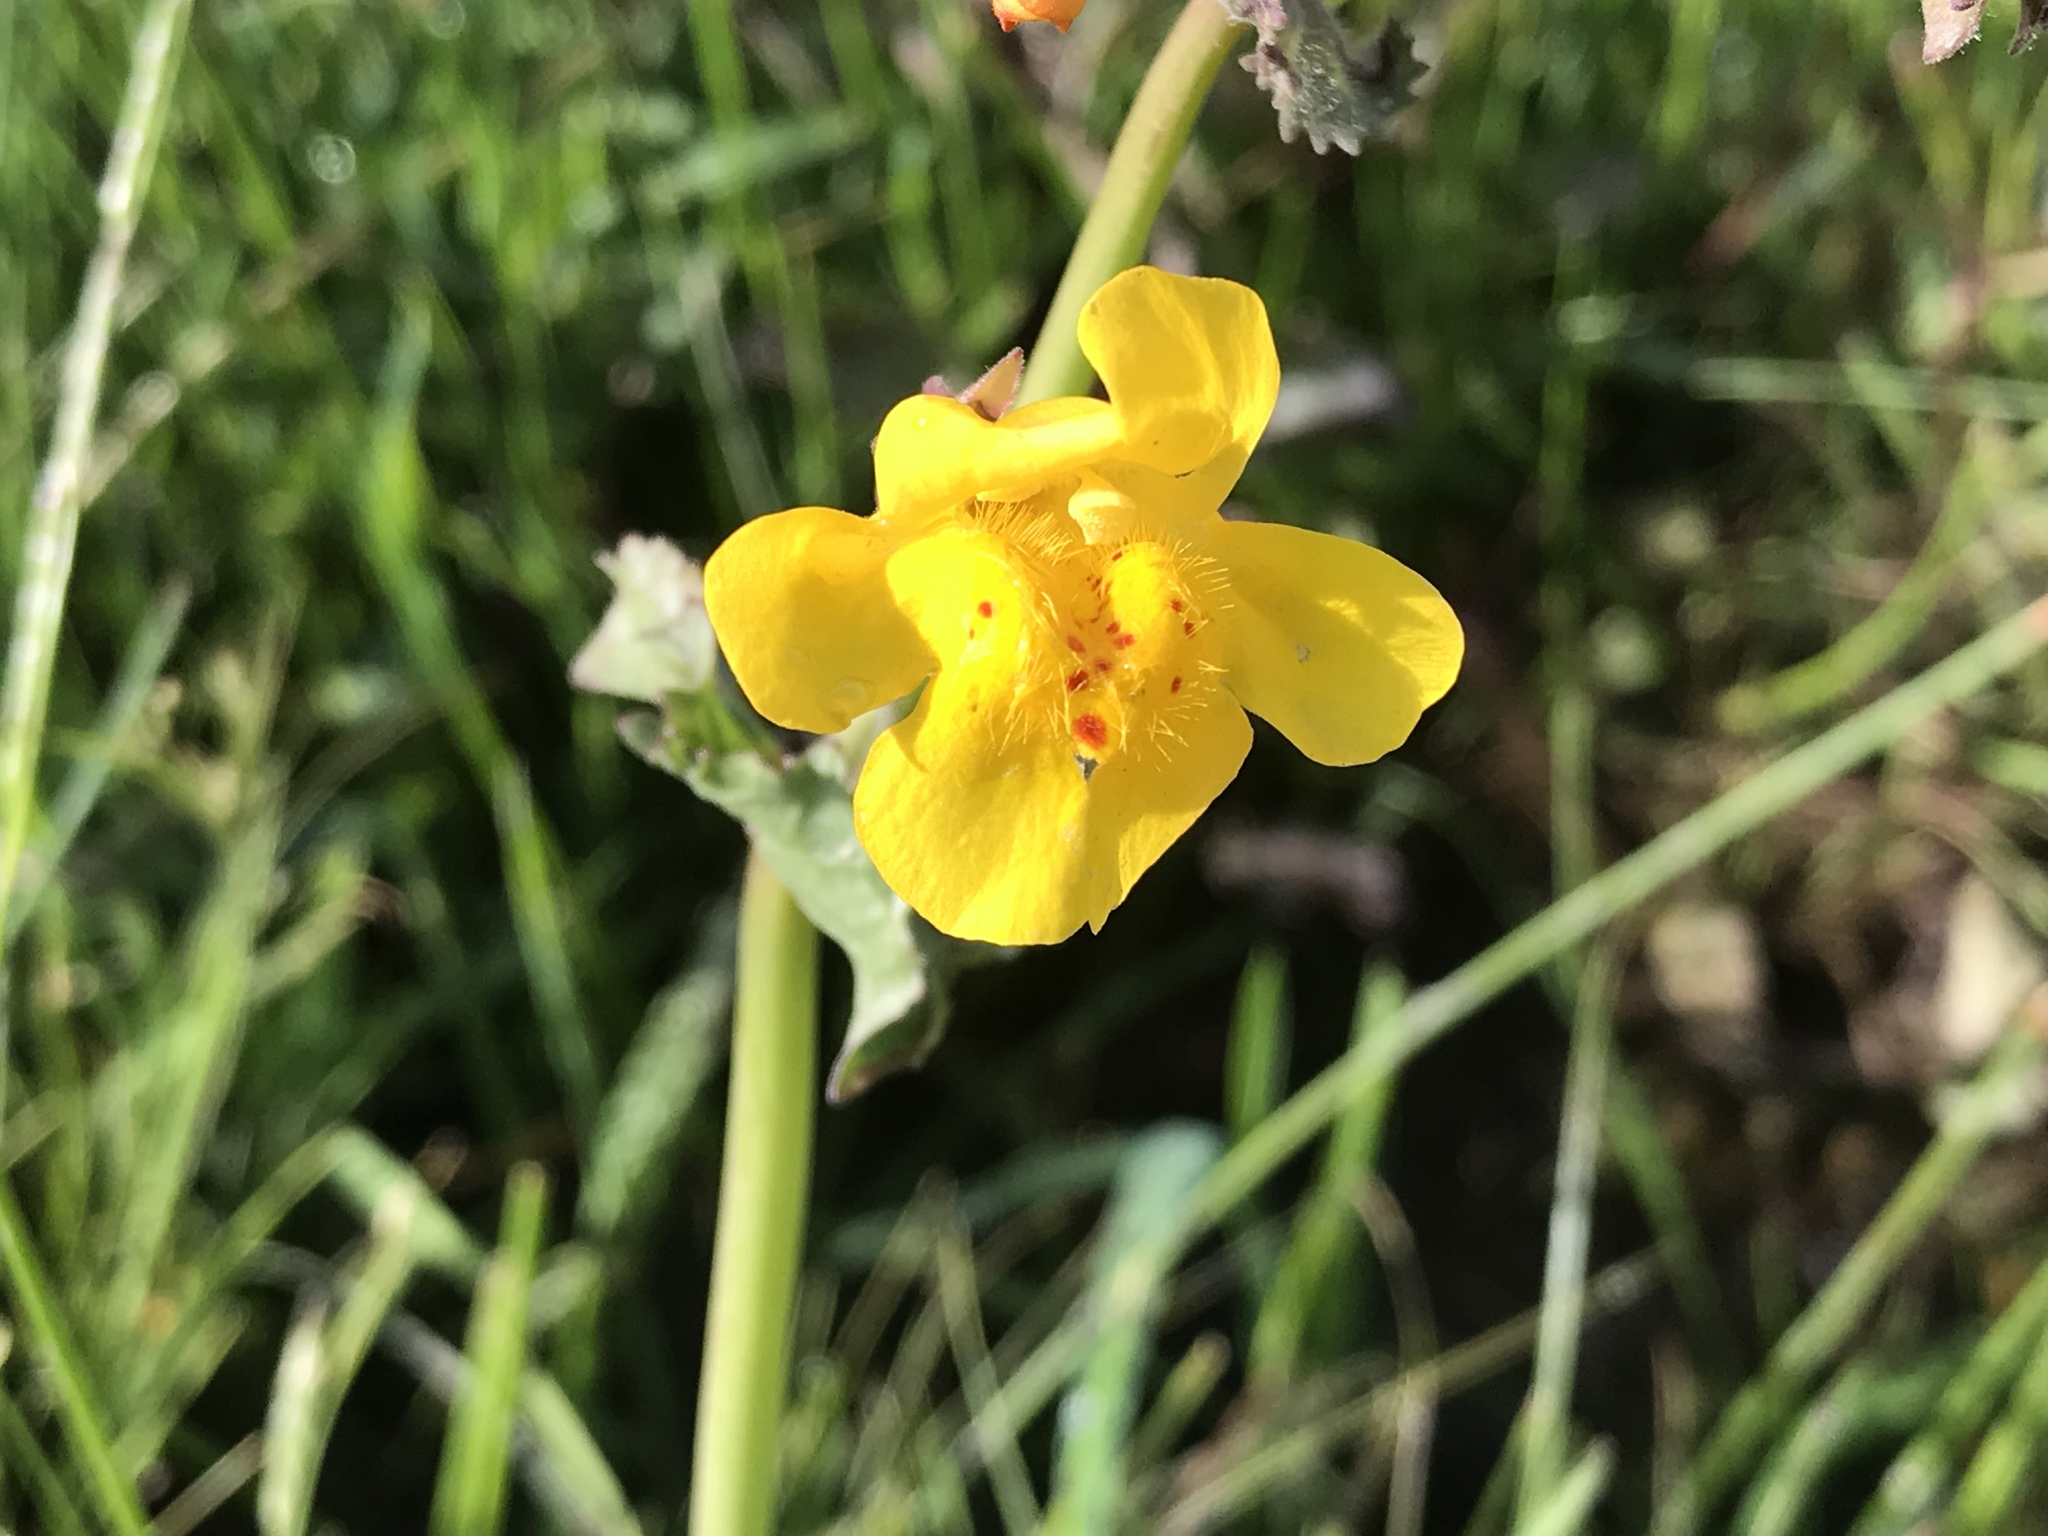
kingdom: Plantae
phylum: Tracheophyta
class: Magnoliopsida
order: Lamiales
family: Phrymaceae
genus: Erythranthe
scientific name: Erythranthe guttata
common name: Monkeyflower
